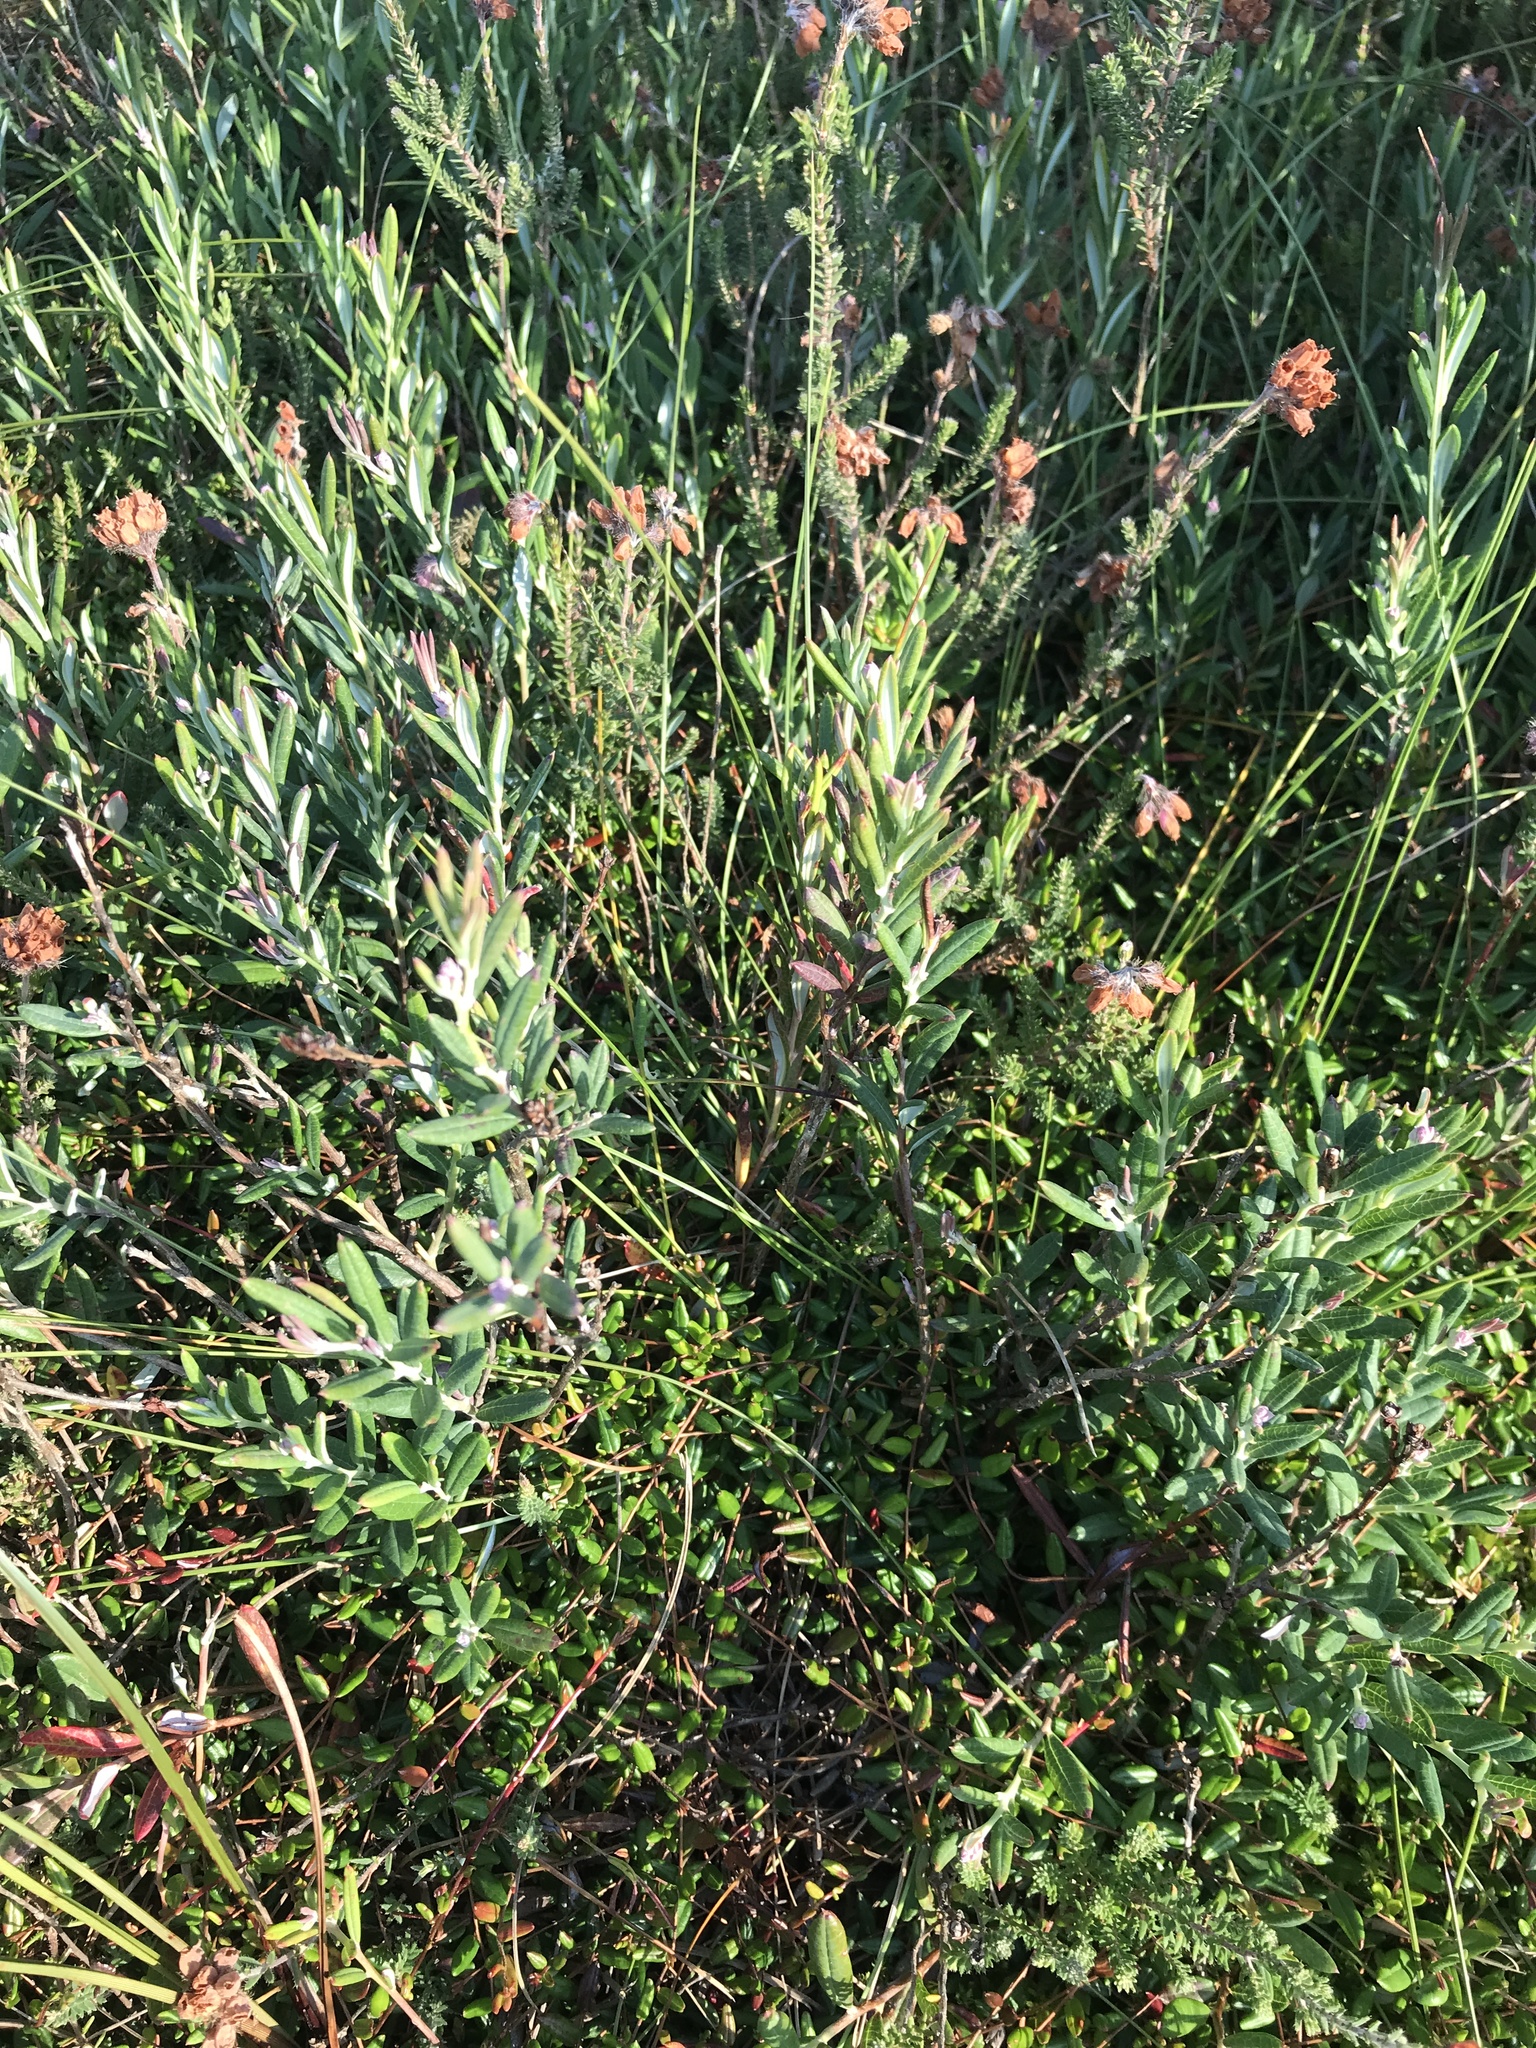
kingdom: Plantae
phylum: Tracheophyta
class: Magnoliopsida
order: Ericales
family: Ericaceae
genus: Andromeda
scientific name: Andromeda polifolia
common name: Bog-rosemary
